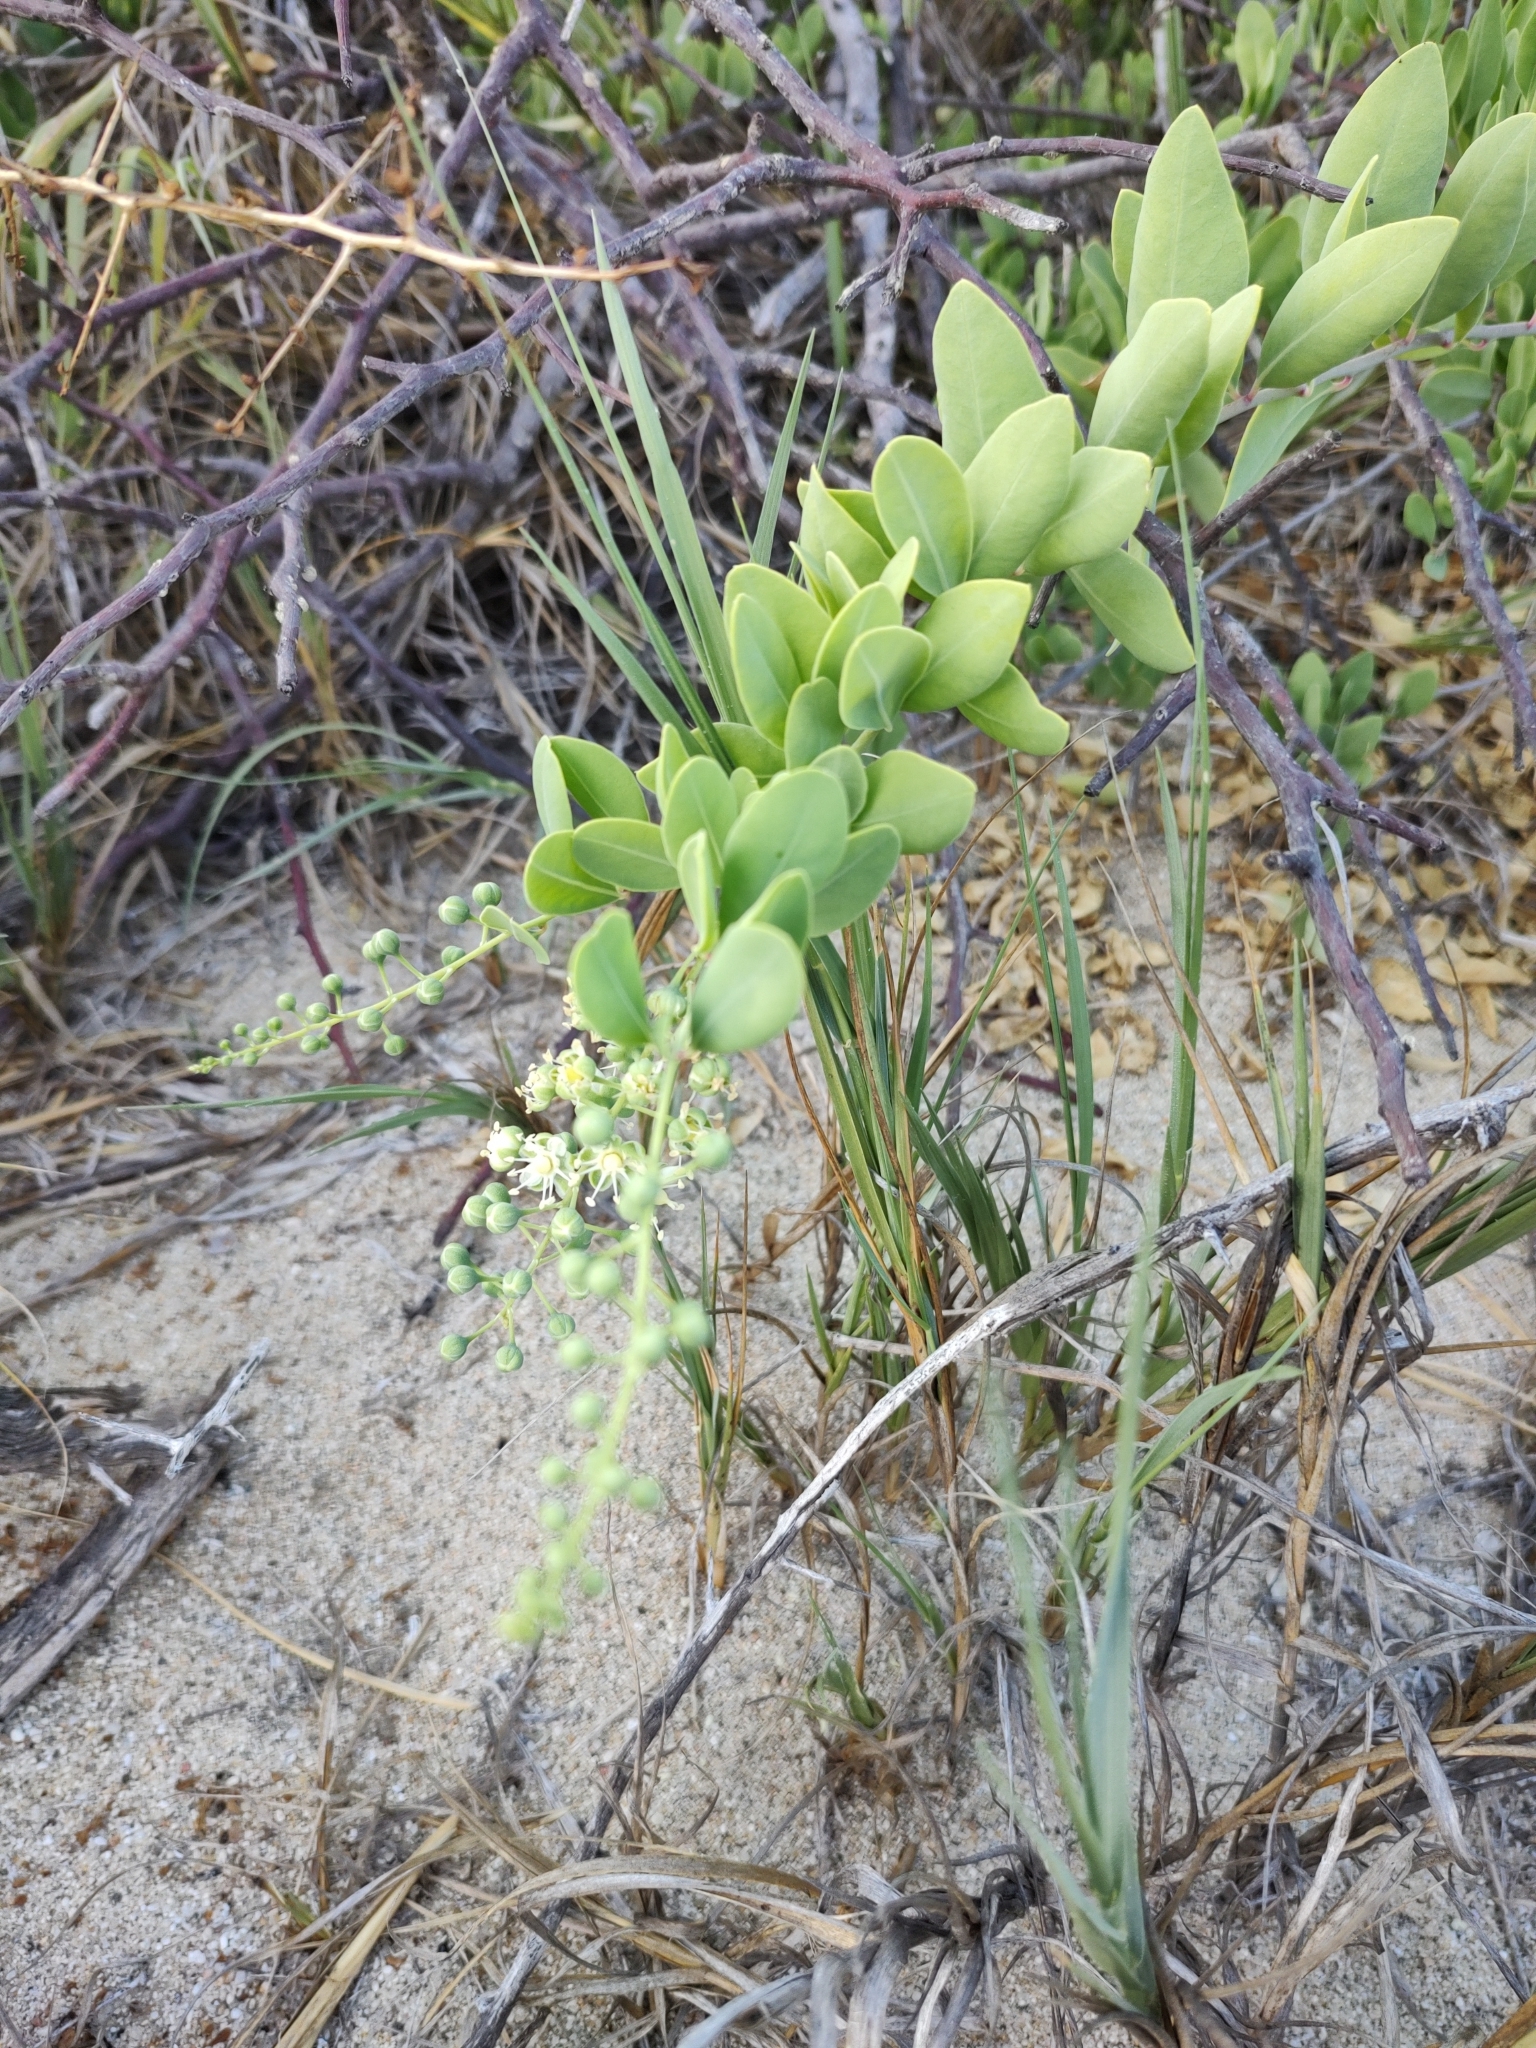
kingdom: Plantae
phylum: Tracheophyta
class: Magnoliopsida
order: Caryophyllales
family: Stegnospermataceae
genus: Stegnosperma
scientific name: Stegnosperma halimifolium
